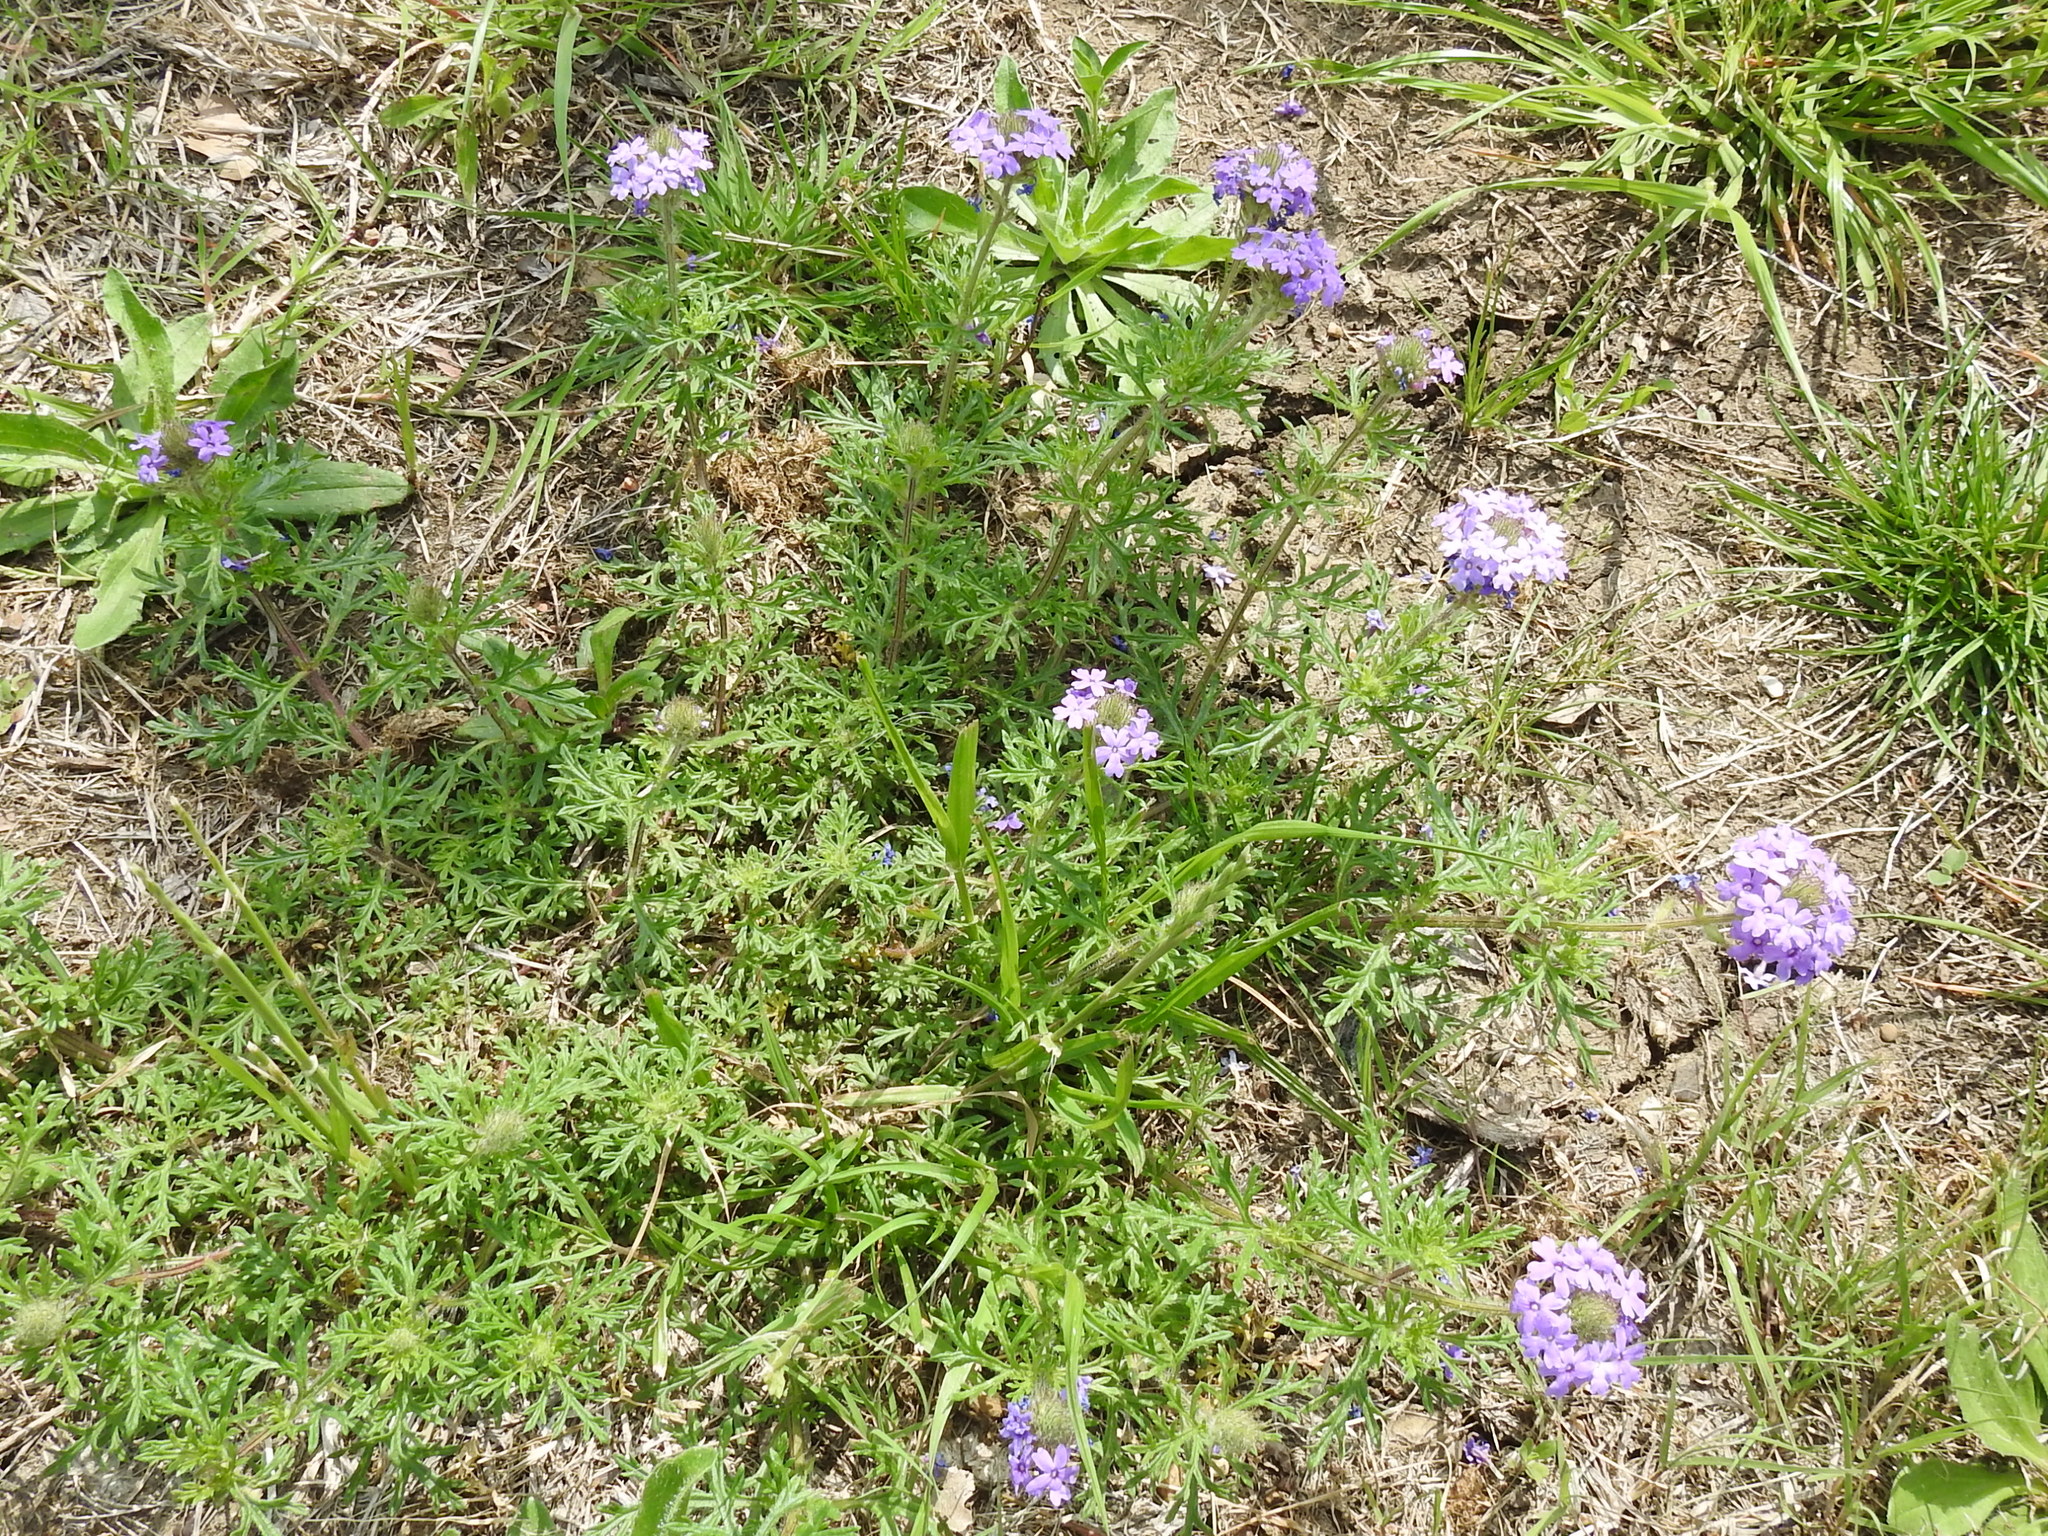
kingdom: Plantae
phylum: Tracheophyta
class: Magnoliopsida
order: Lamiales
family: Verbenaceae
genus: Verbena
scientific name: Verbena bipinnatifida
